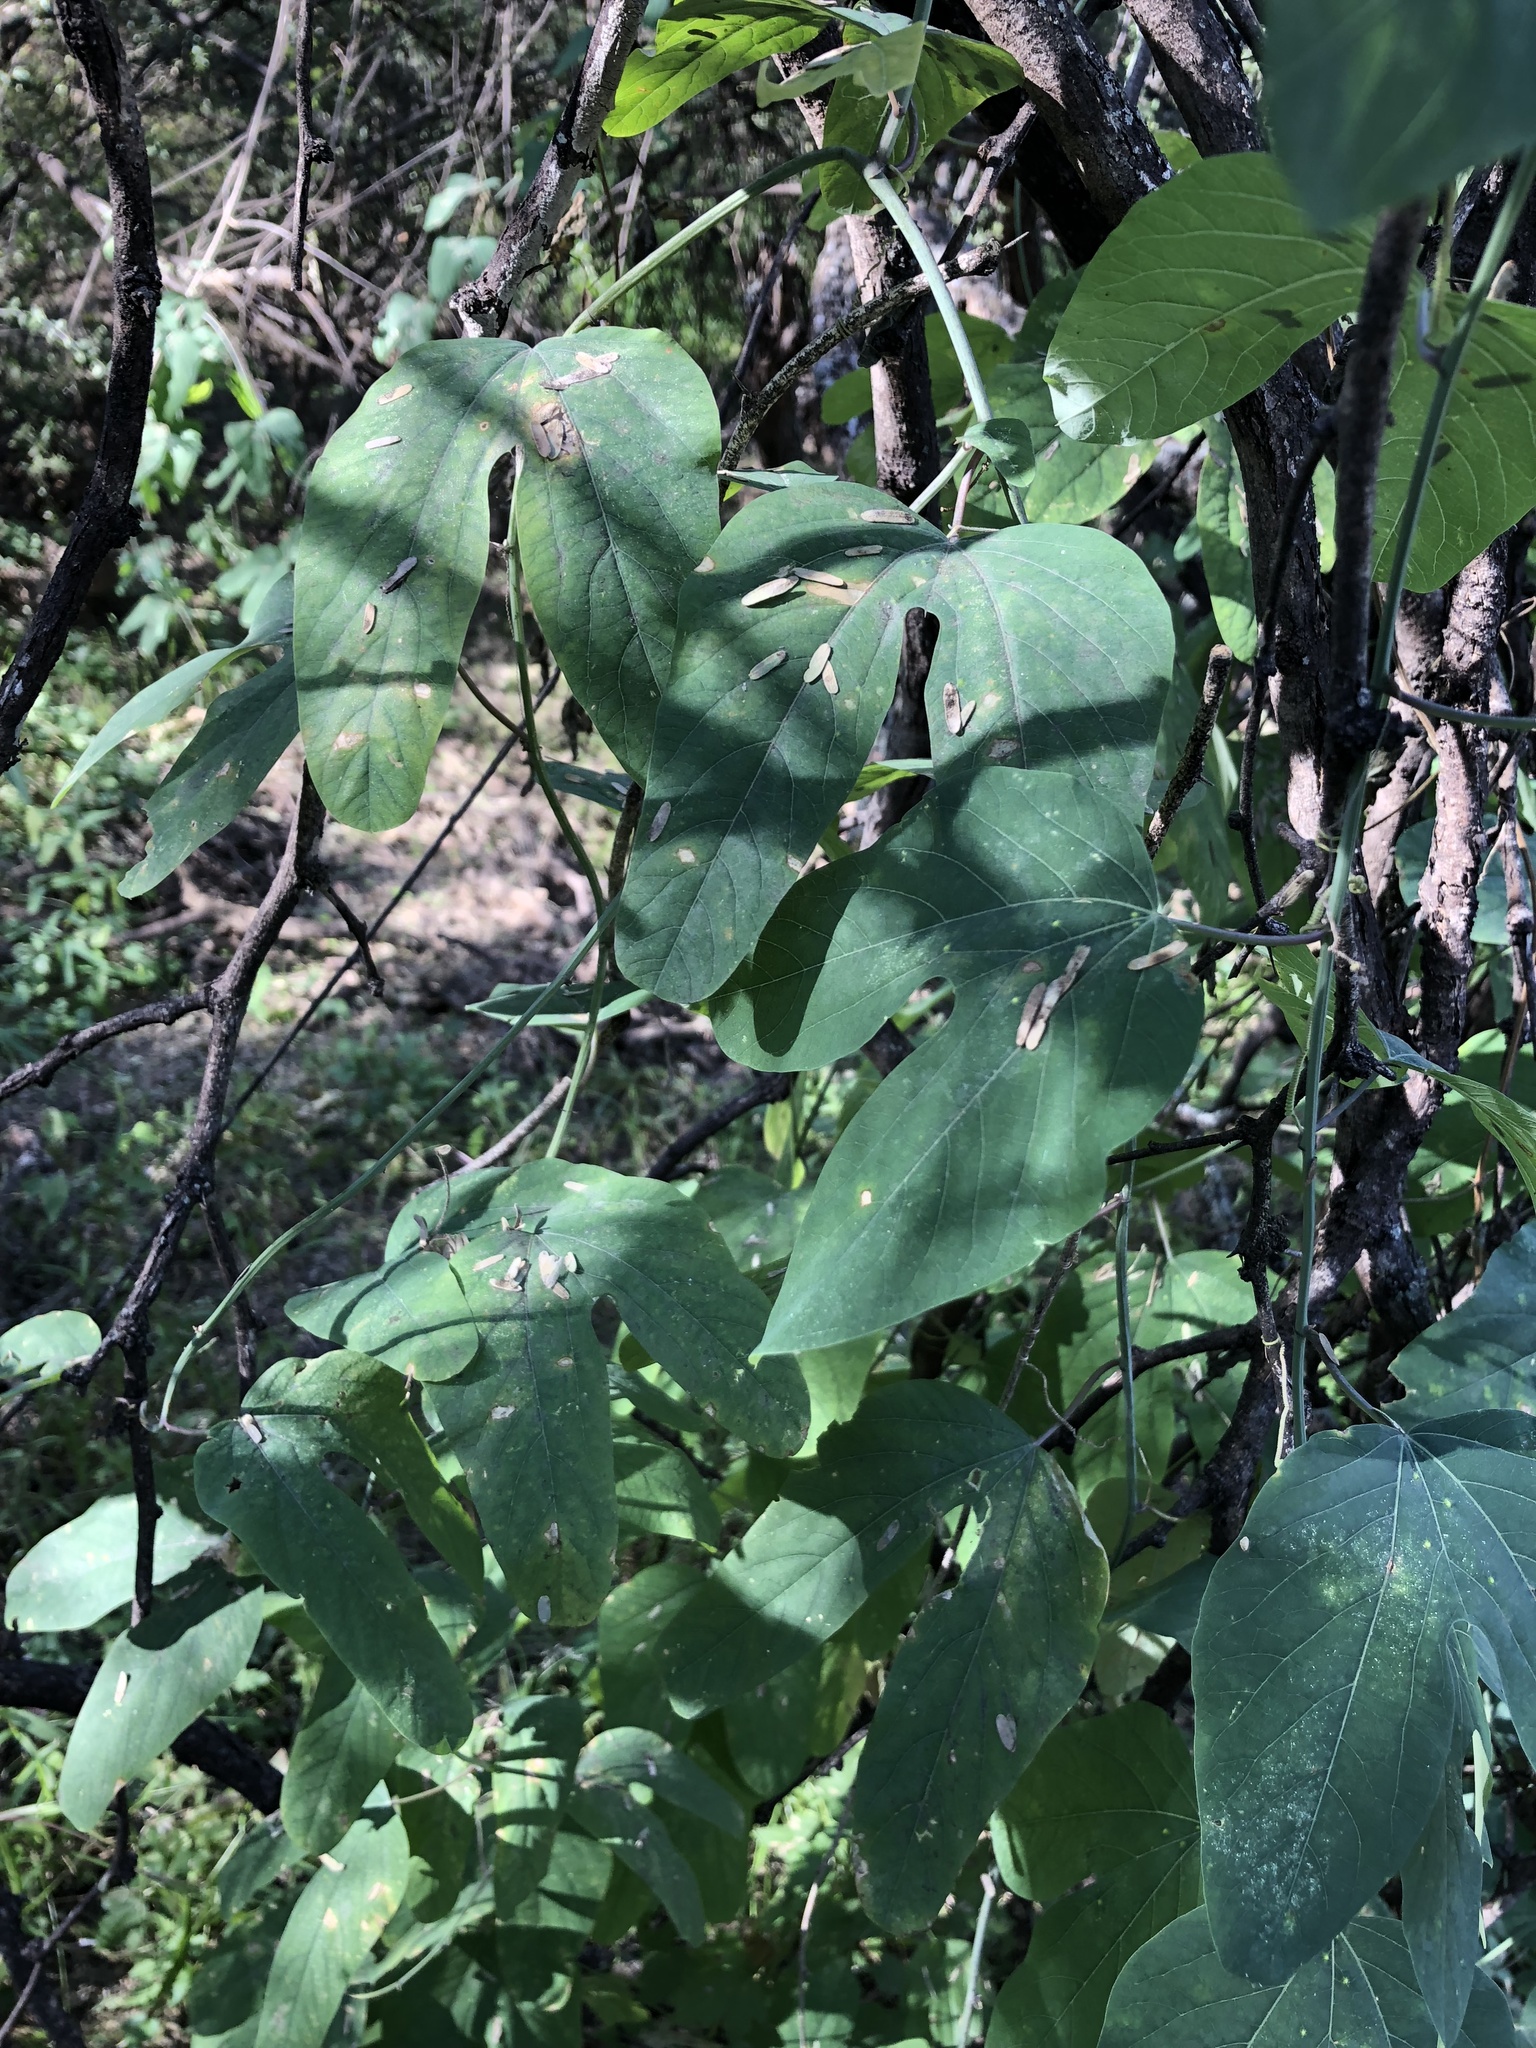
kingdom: Plantae
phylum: Tracheophyta
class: Magnoliopsida
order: Malpighiales
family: Passifloraceae
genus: Passiflora
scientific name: Passiflora mexicana
